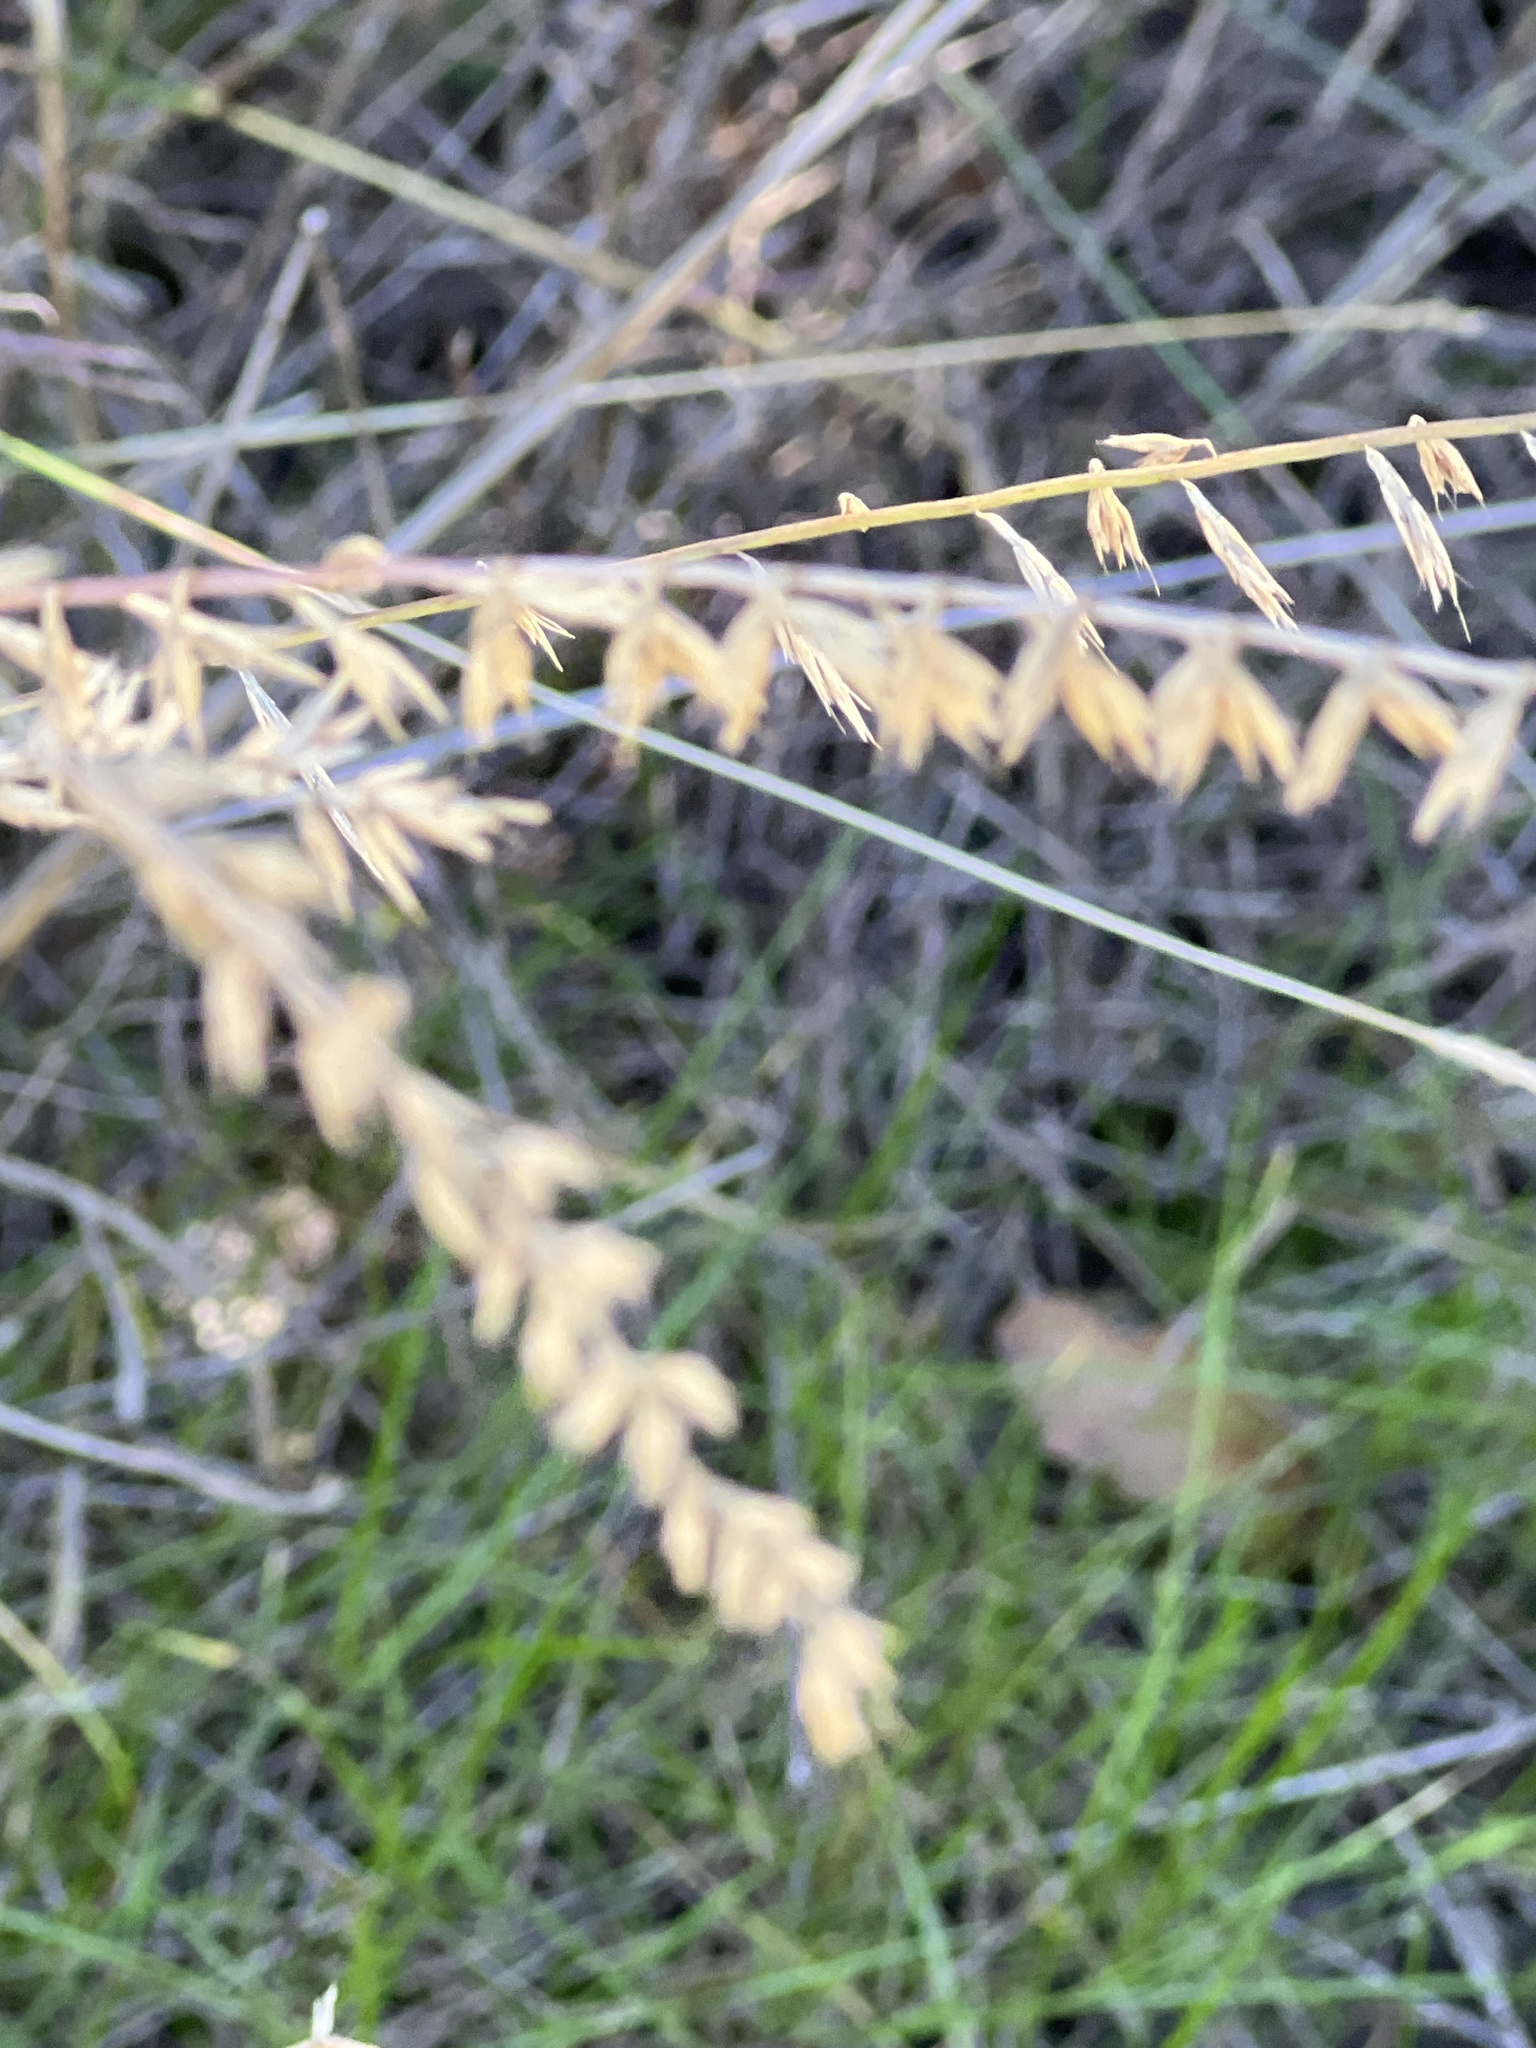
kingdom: Plantae
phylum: Tracheophyta
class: Liliopsida
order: Poales
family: Poaceae
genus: Bouteloua
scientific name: Bouteloua curtipendula
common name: Side-oats grama
